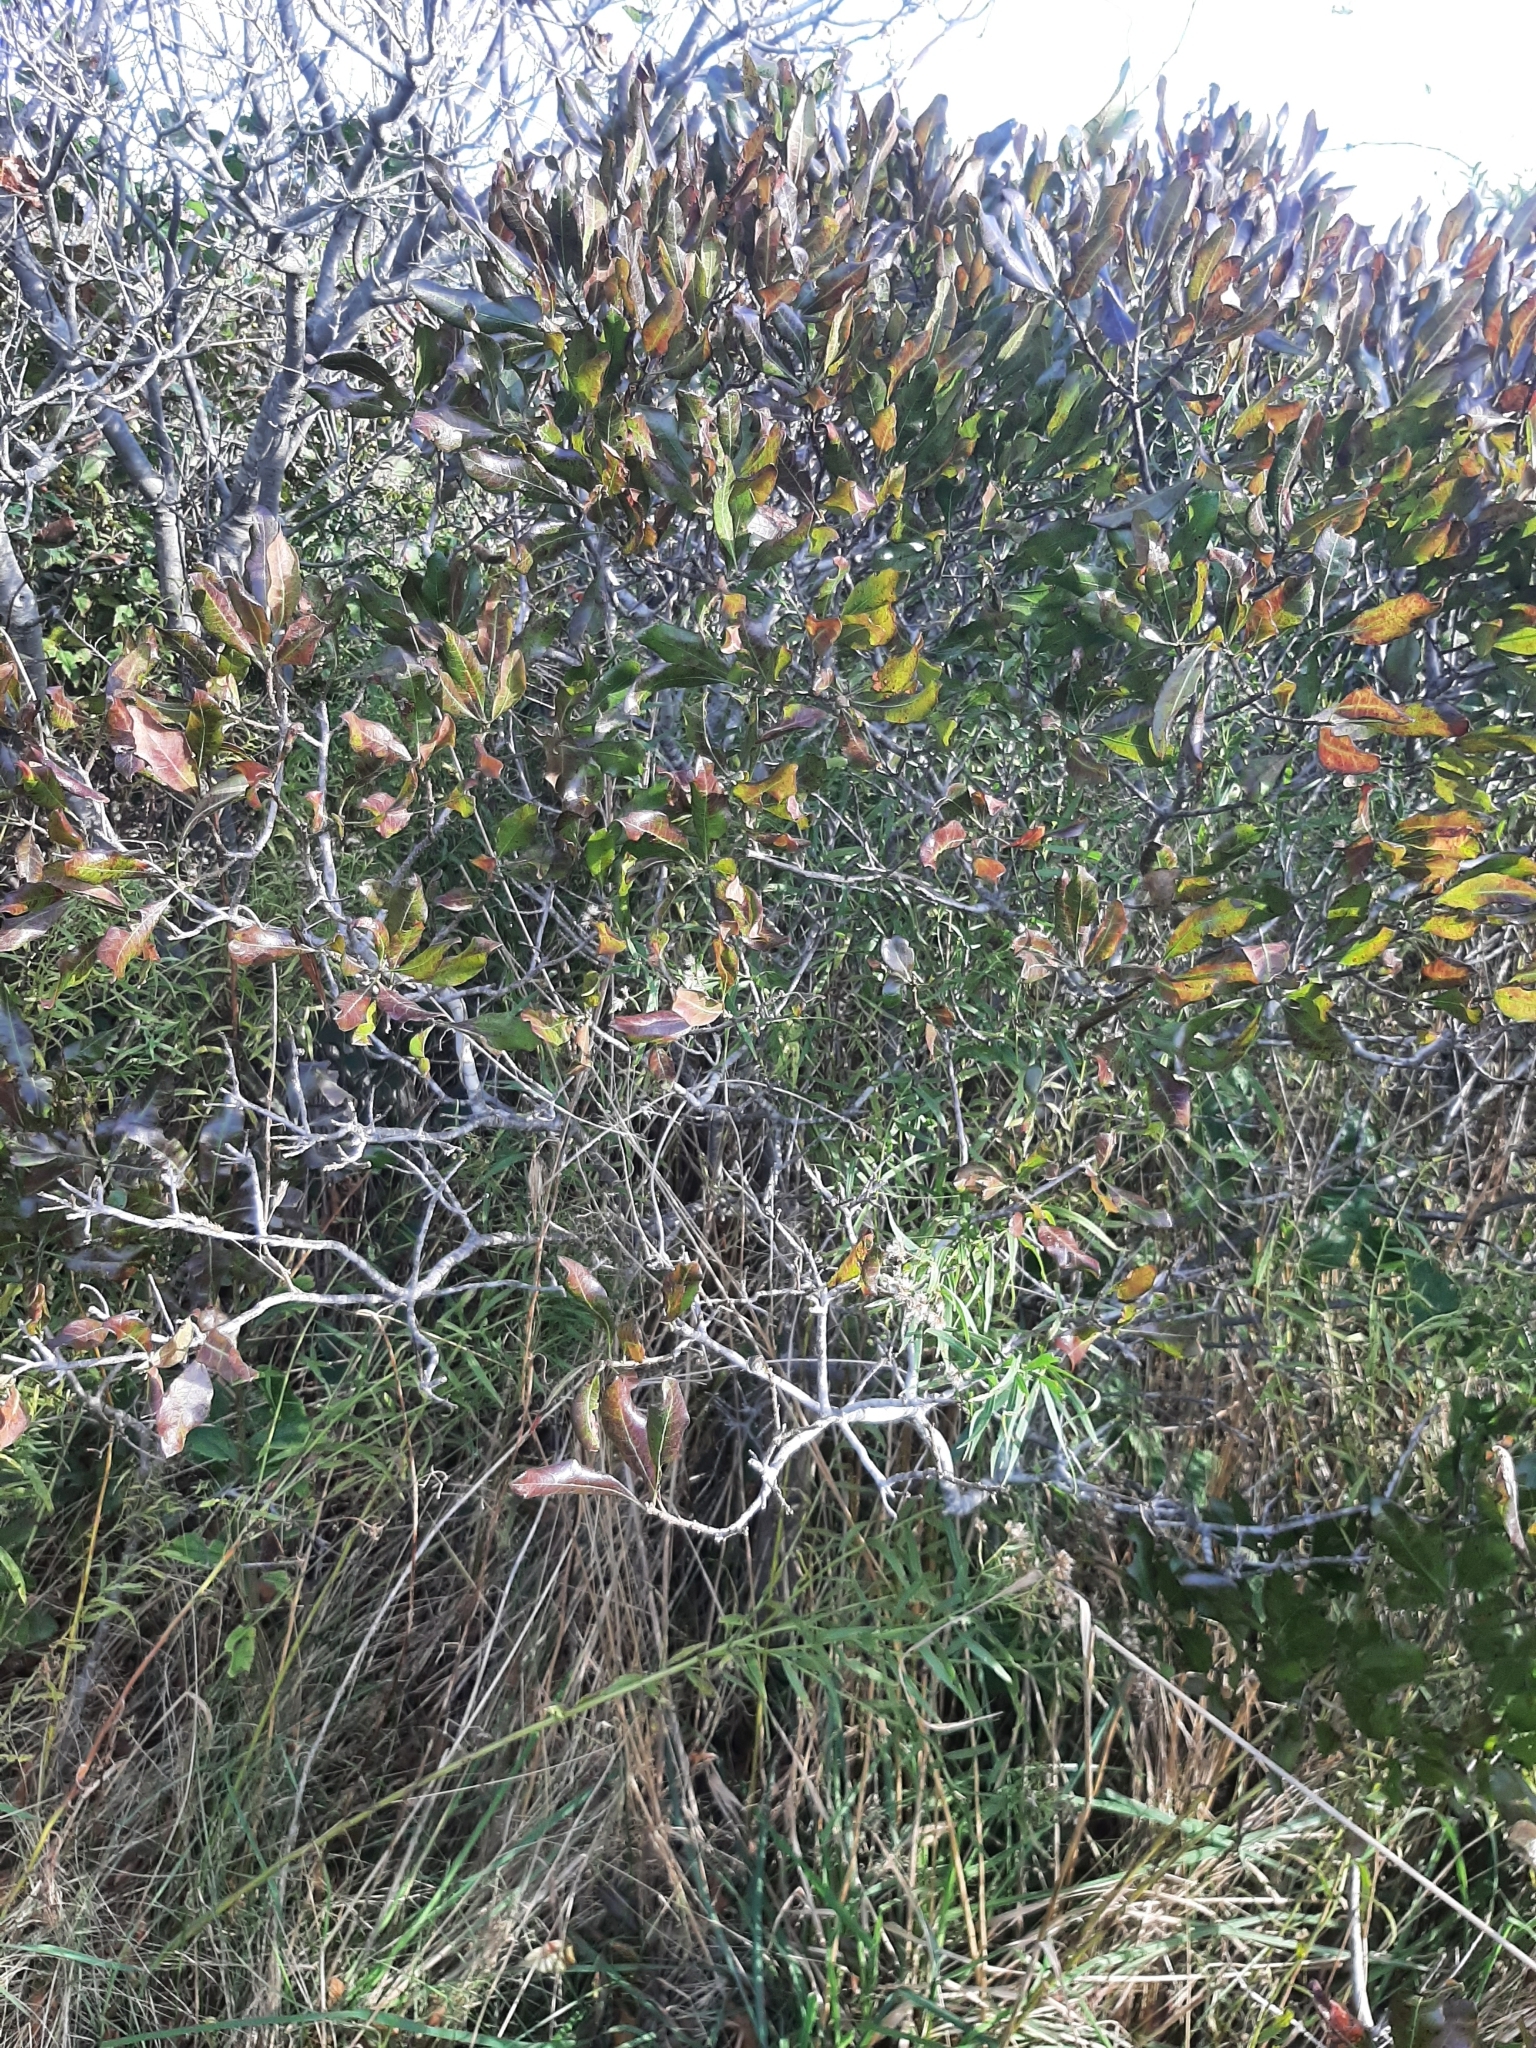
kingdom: Plantae
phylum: Tracheophyta
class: Magnoliopsida
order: Fagales
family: Myricaceae
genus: Morella
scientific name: Morella pensylvanica
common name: Northern bayberry
